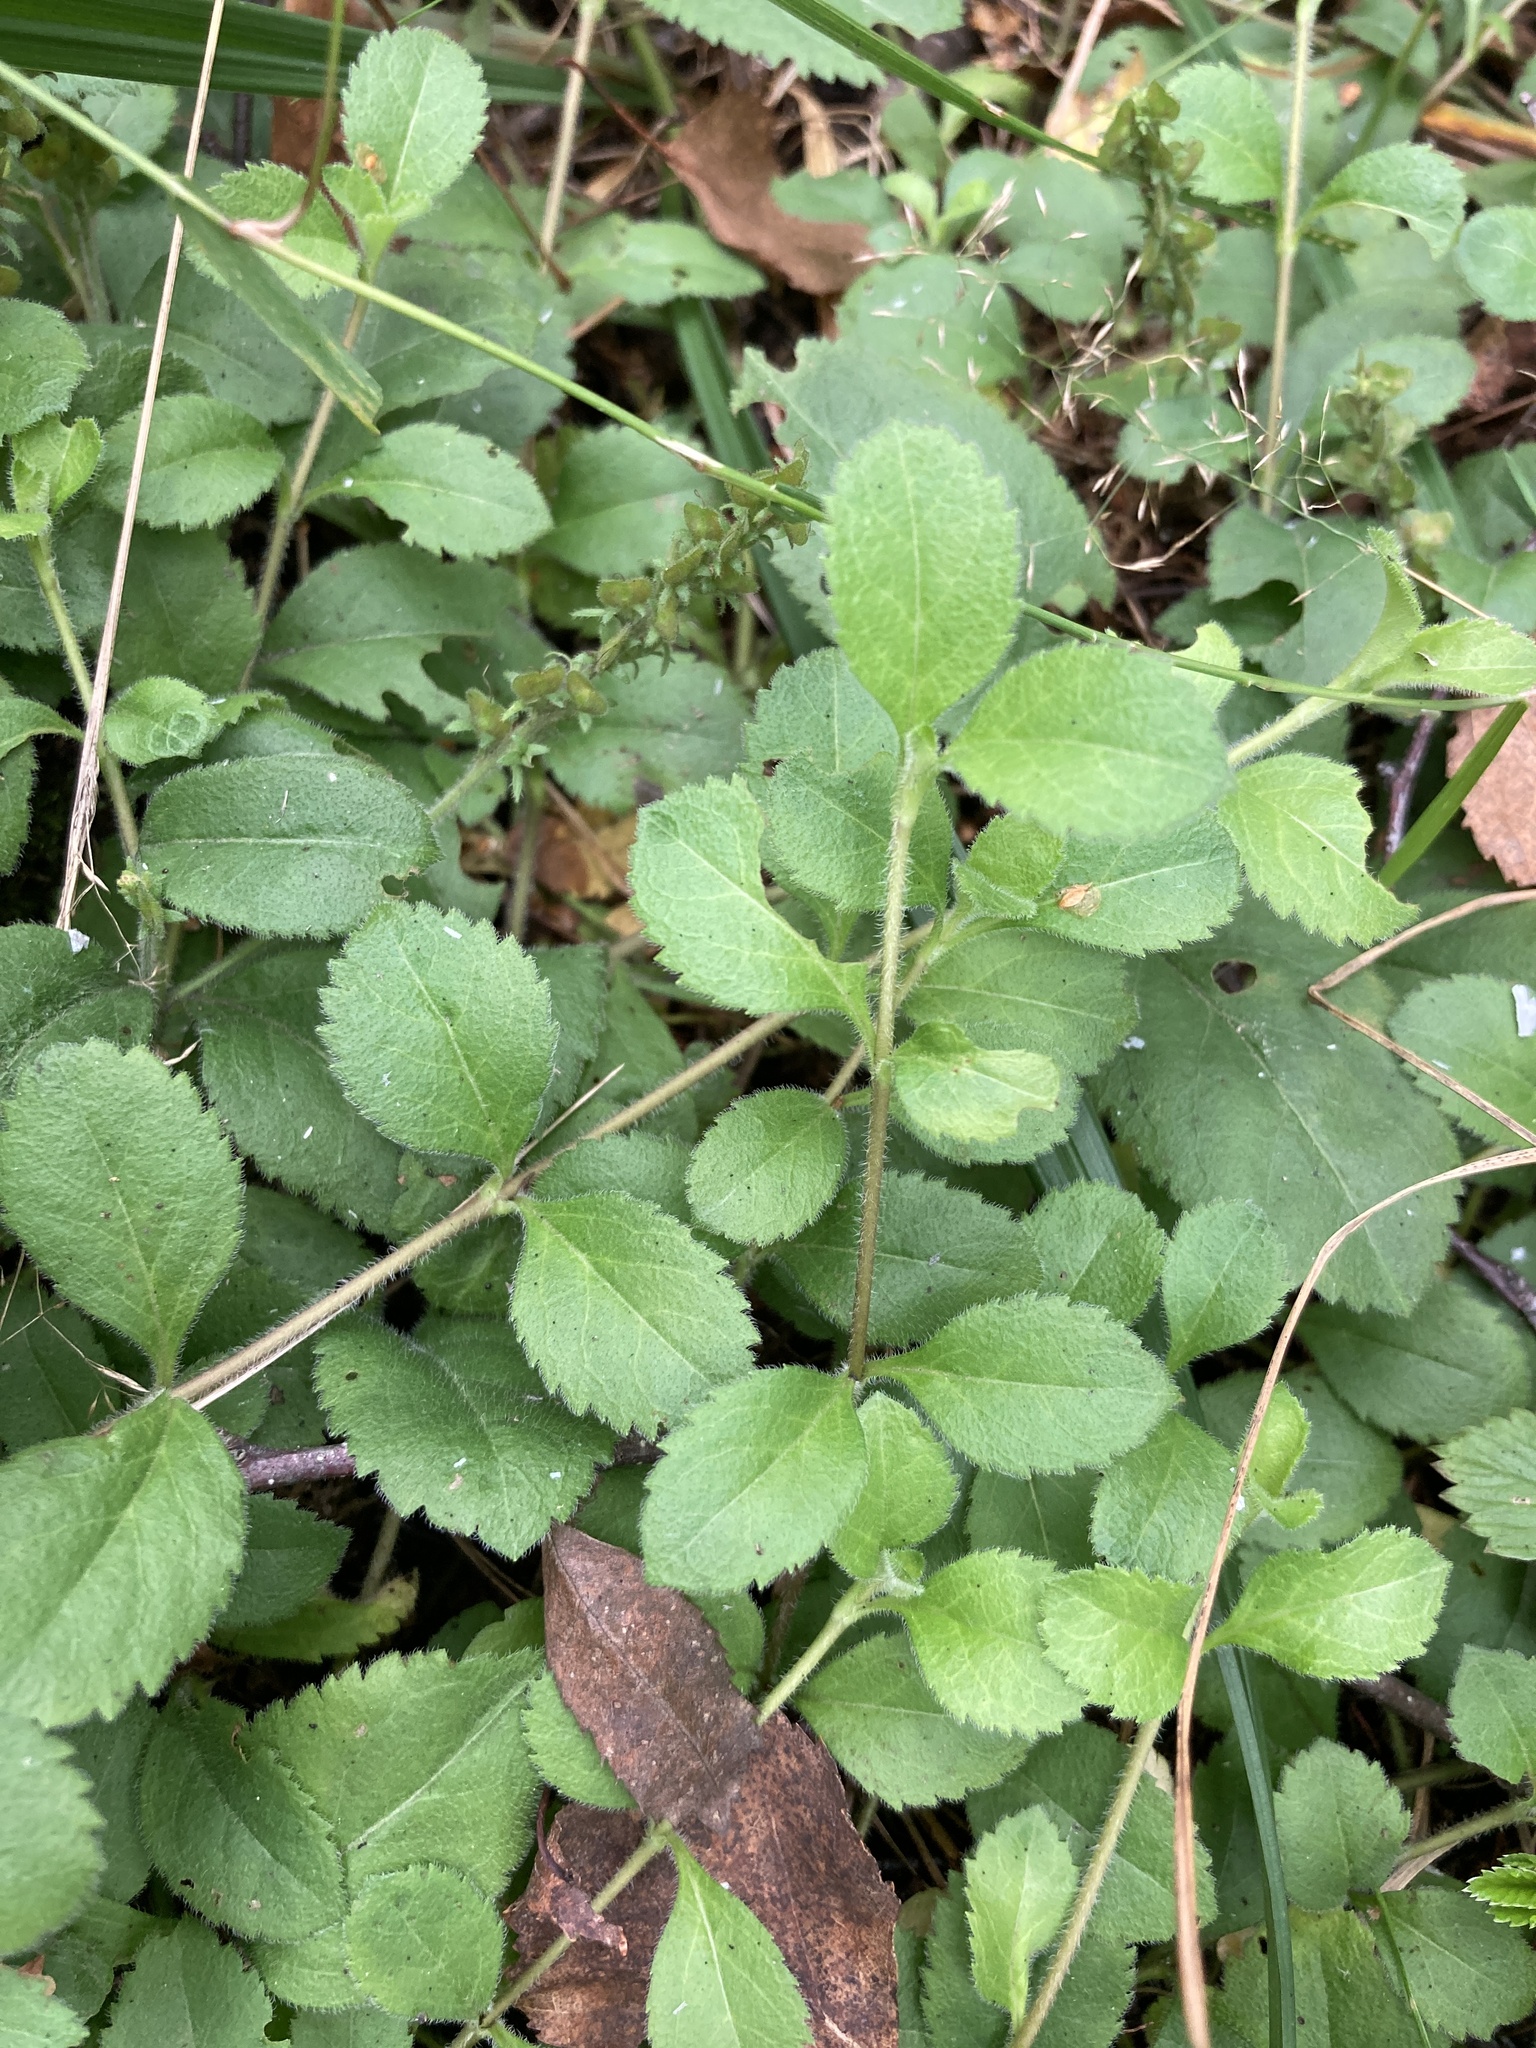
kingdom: Plantae
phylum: Tracheophyta
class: Magnoliopsida
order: Lamiales
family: Plantaginaceae
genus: Veronica
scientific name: Veronica officinalis
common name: Common speedwell
